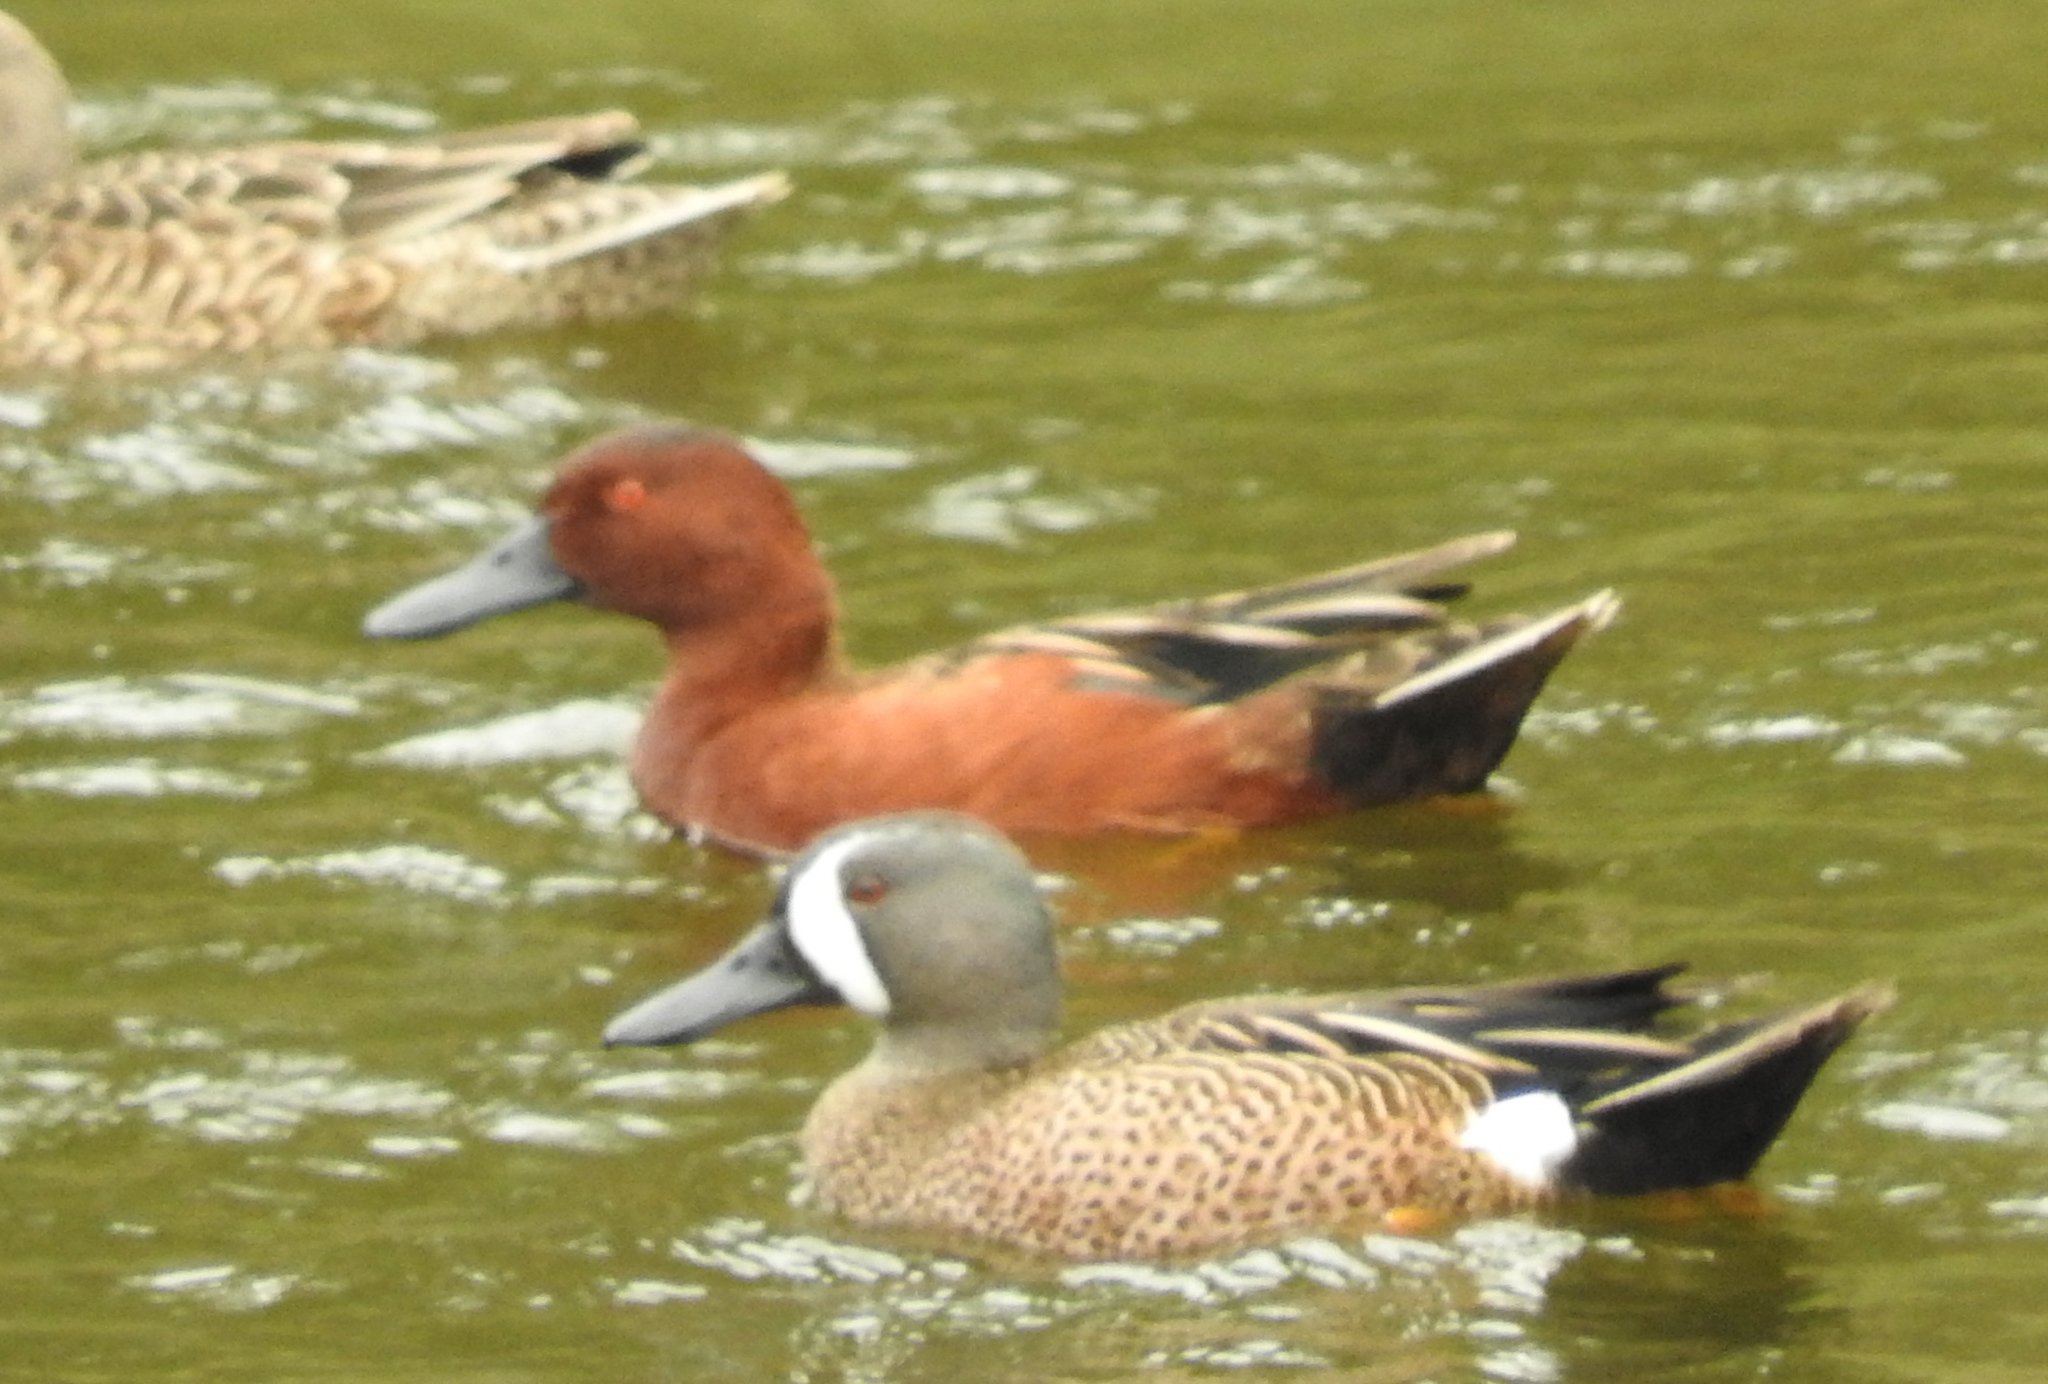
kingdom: Animalia
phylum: Chordata
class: Aves
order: Anseriformes
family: Anatidae
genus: Spatula
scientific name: Spatula discors
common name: Blue-winged teal
